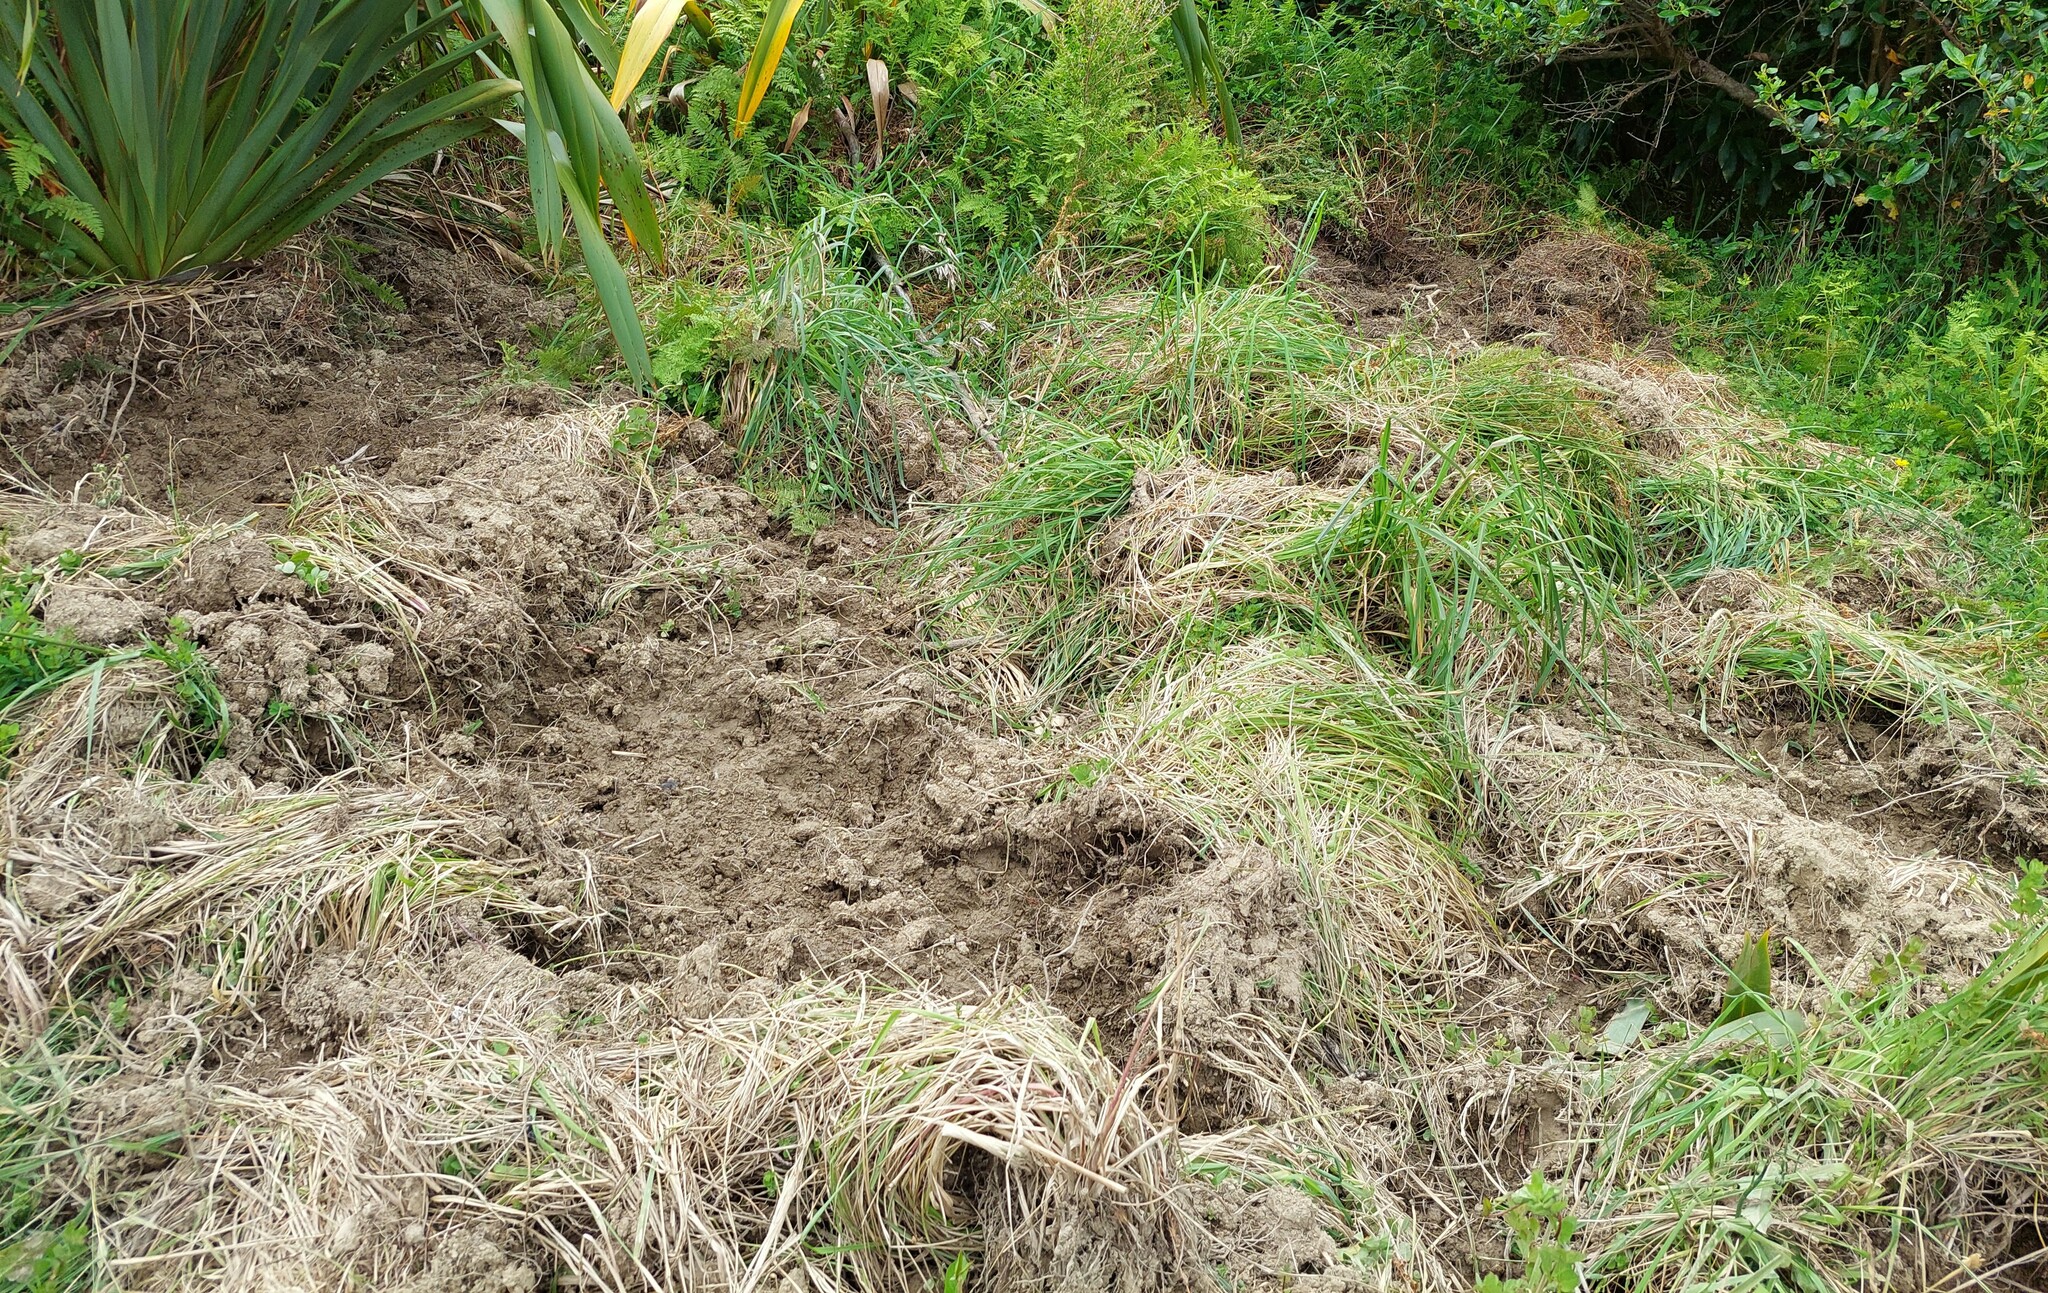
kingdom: Animalia
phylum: Chordata
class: Mammalia
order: Artiodactyla
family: Suidae
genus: Sus
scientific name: Sus scrofa
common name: Wild boar
